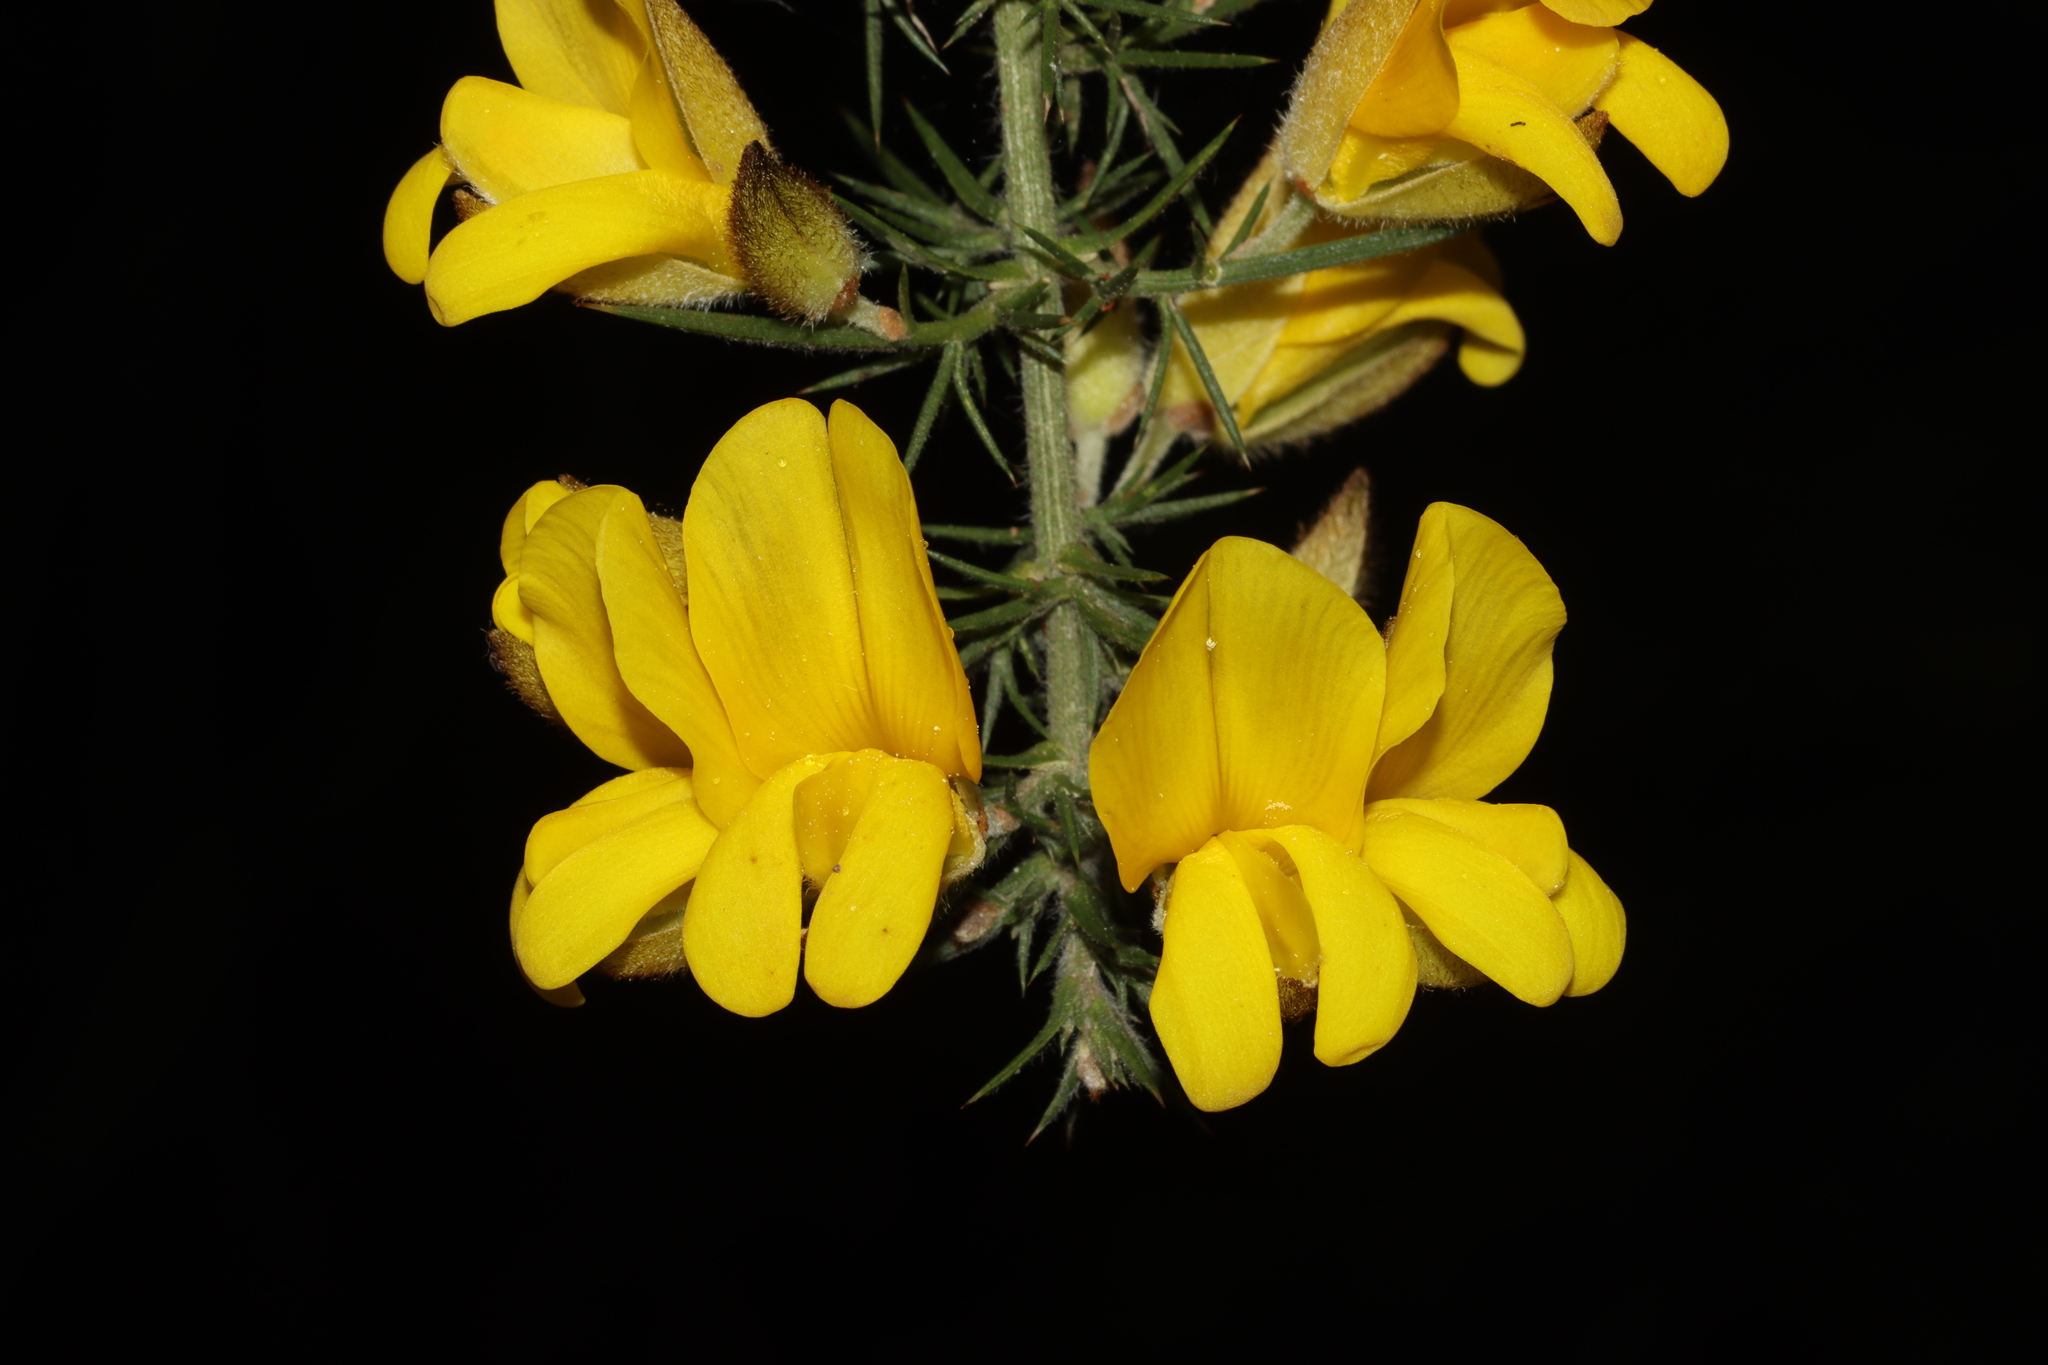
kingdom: Plantae
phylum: Tracheophyta
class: Magnoliopsida
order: Fabales
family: Fabaceae
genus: Ulex
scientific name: Ulex europaeus
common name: Common gorse
